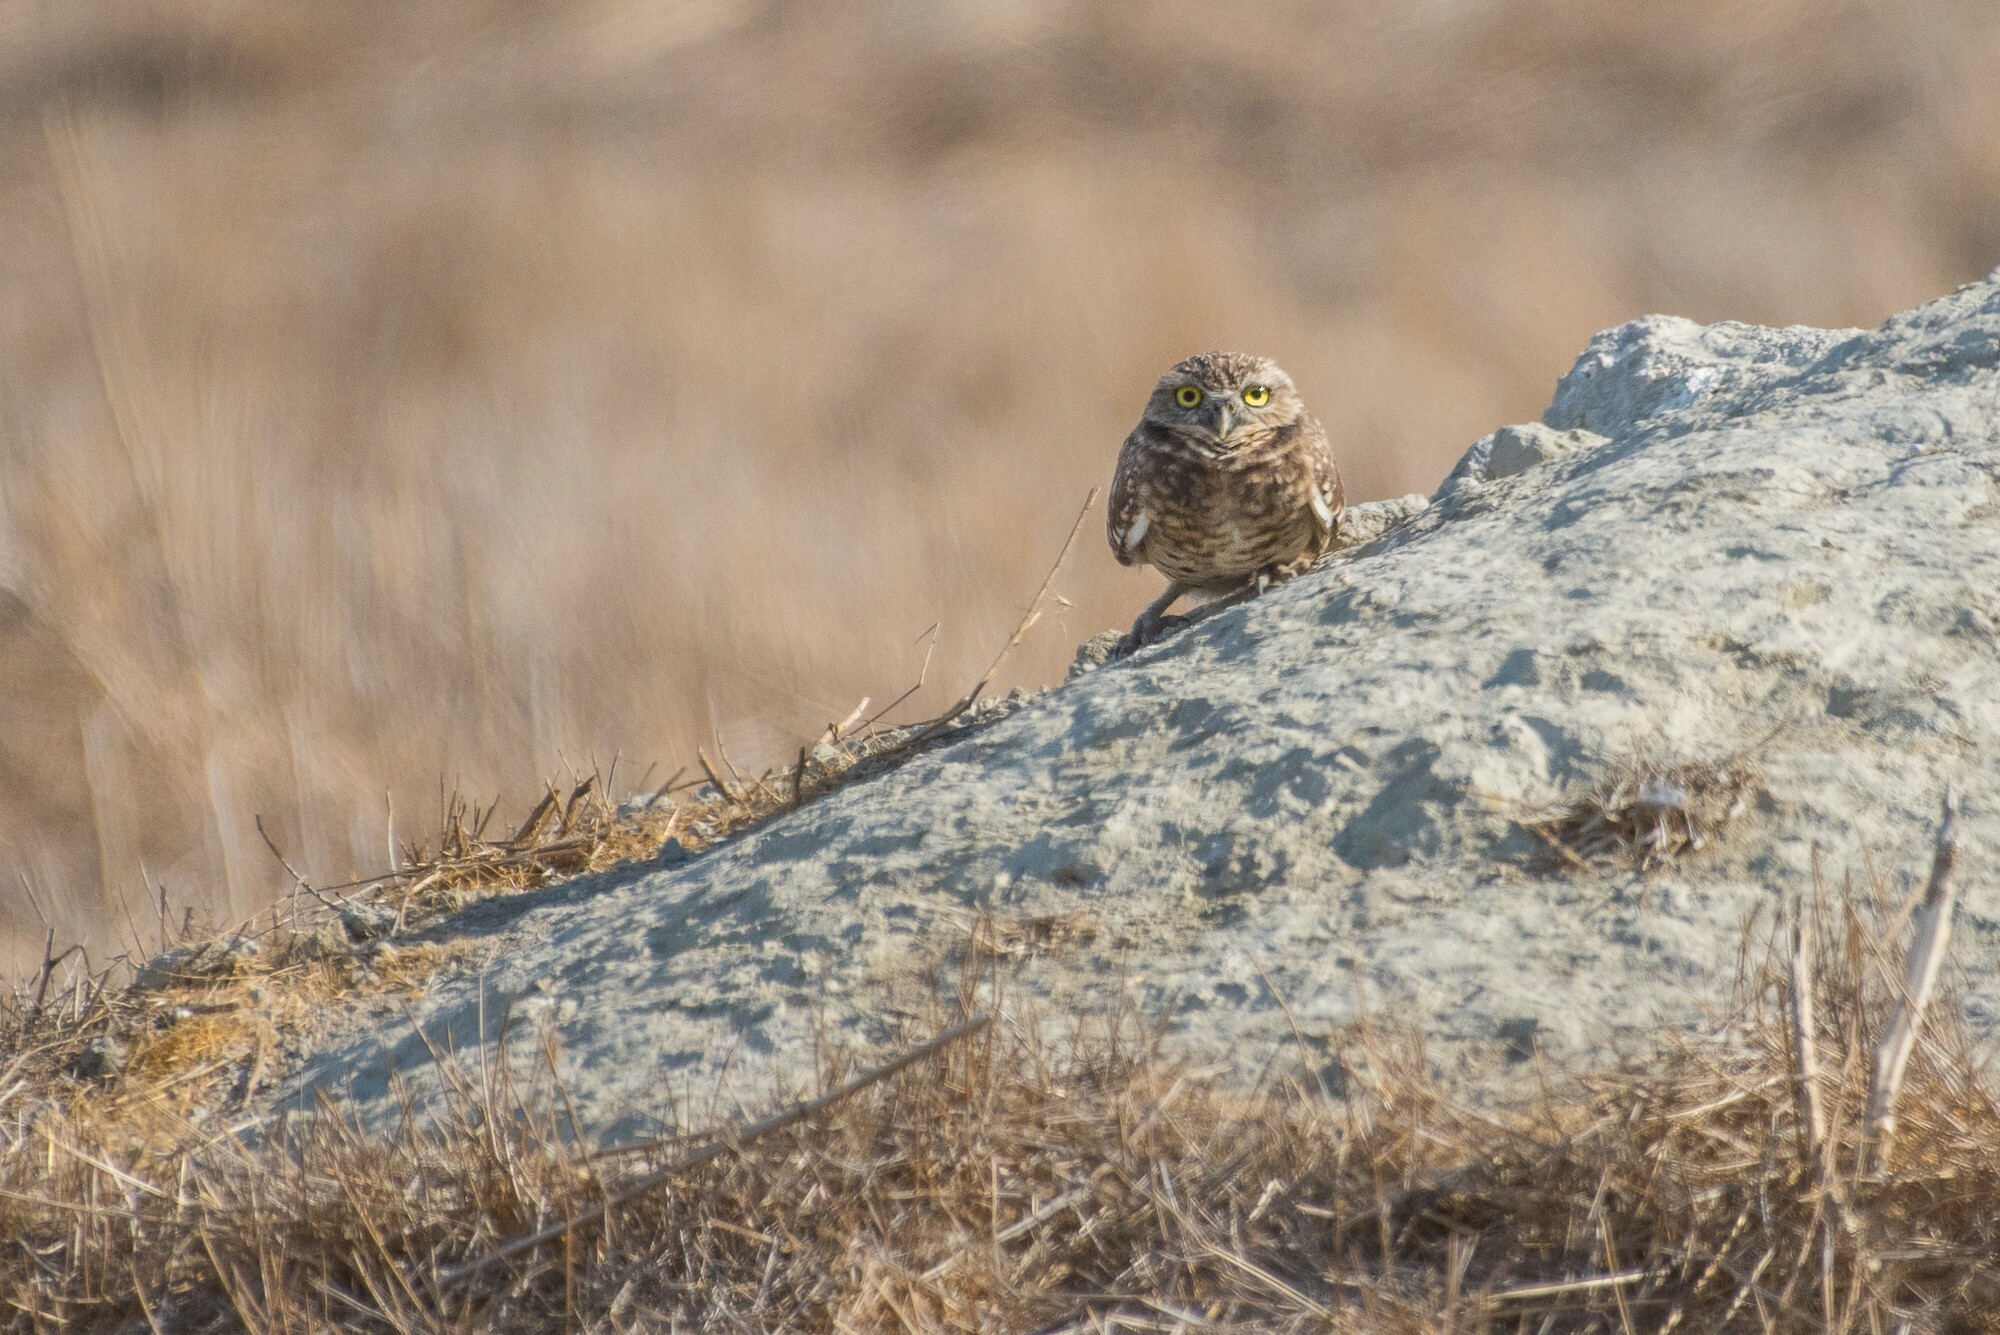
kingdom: Animalia
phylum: Chordata
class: Aves
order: Strigiformes
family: Strigidae
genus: Athene
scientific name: Athene cunicularia
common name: Burrowing owl
